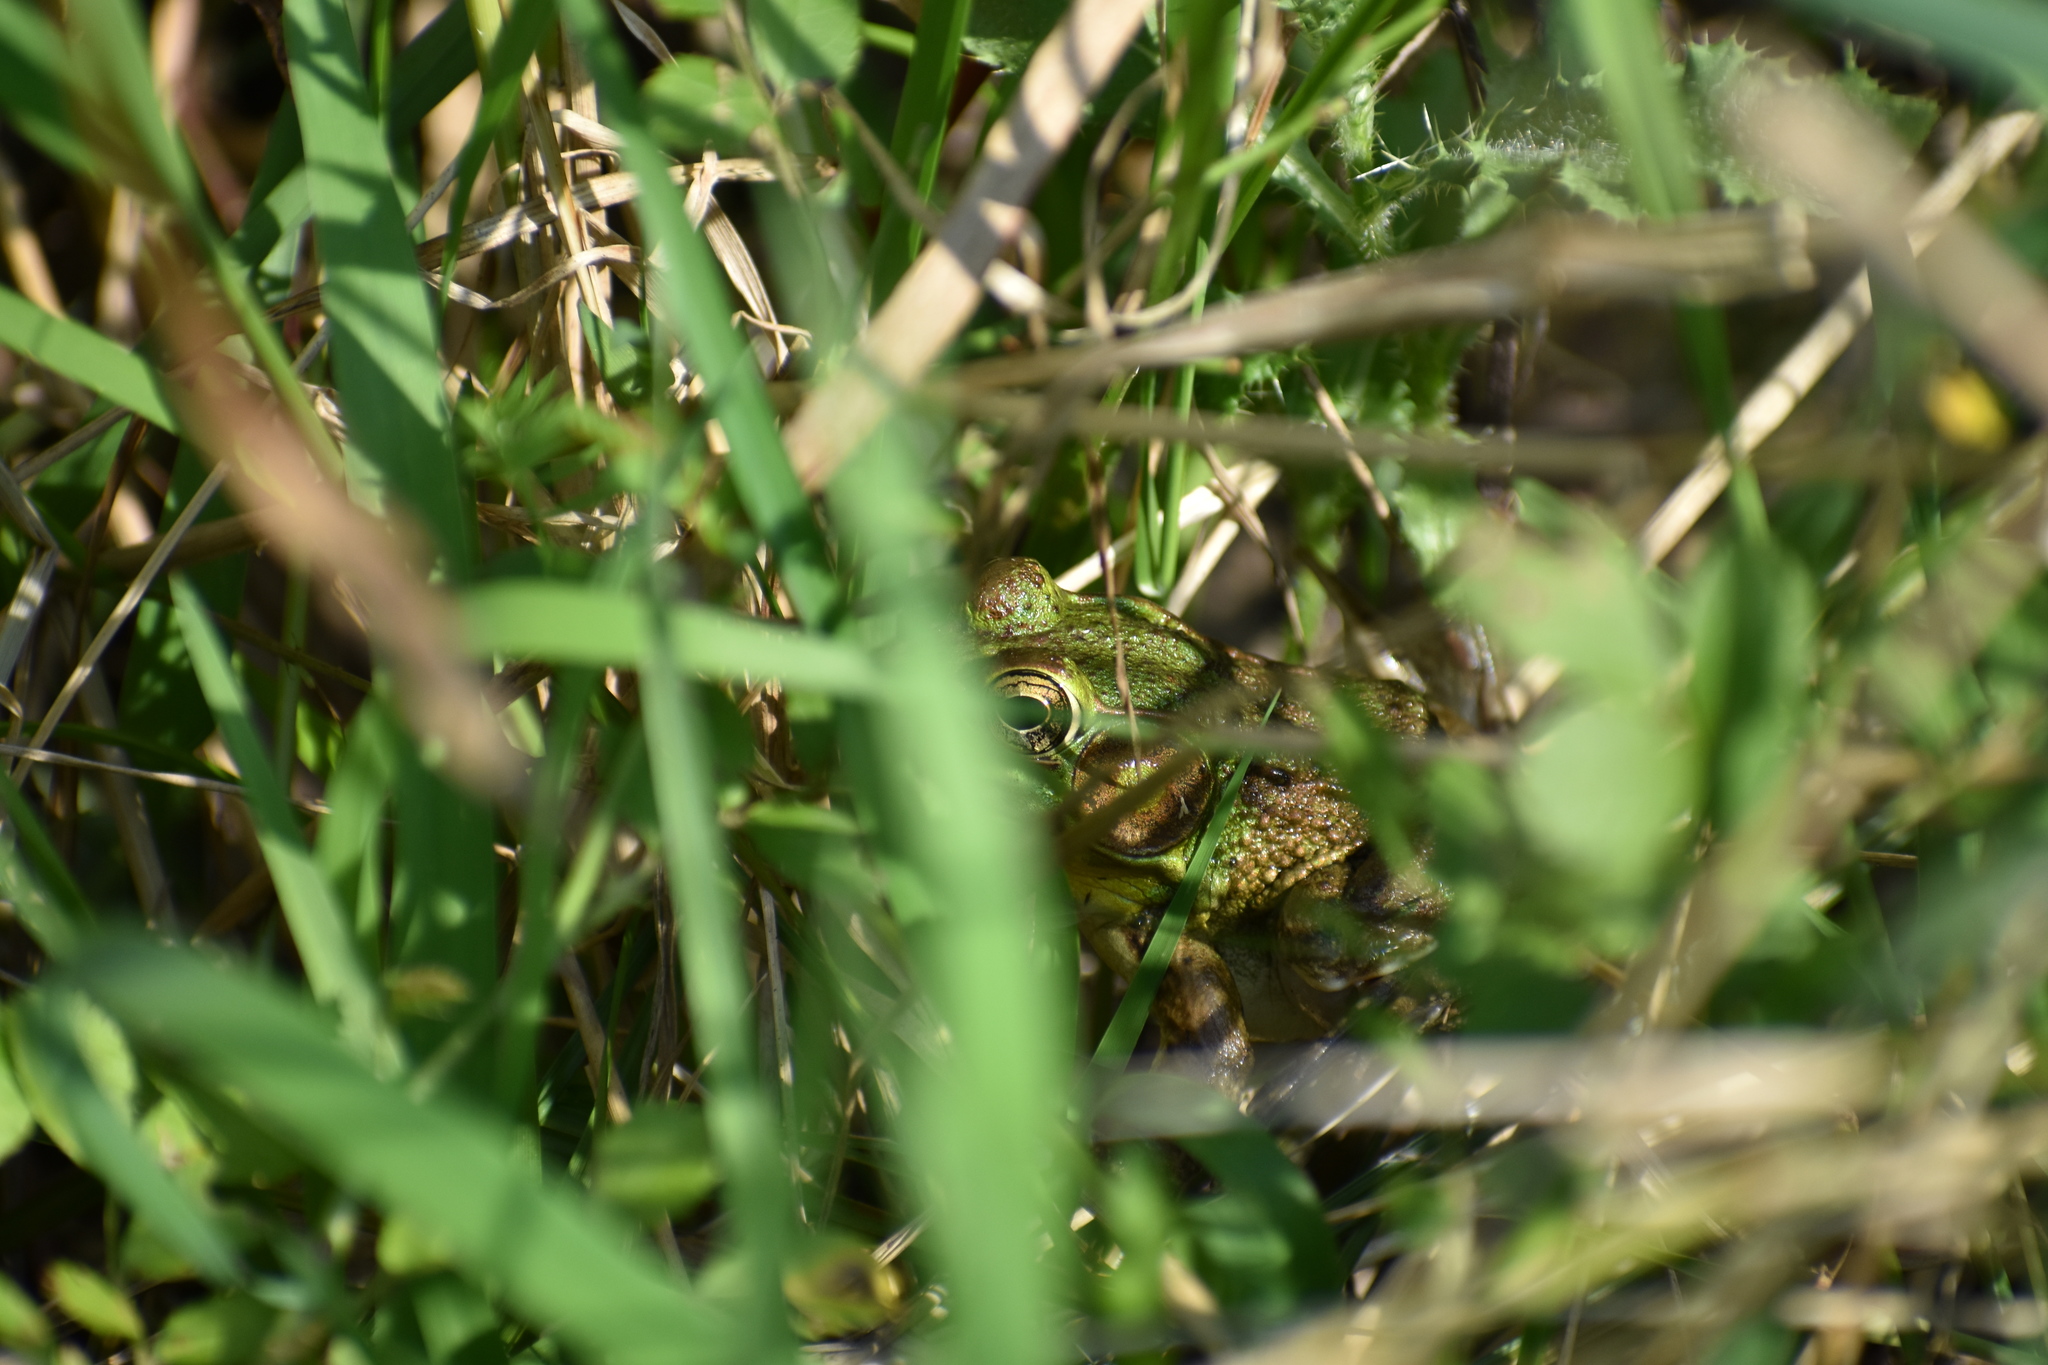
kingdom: Animalia
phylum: Chordata
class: Amphibia
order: Anura
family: Ranidae
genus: Lithobates
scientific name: Lithobates clamitans
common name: Green frog
